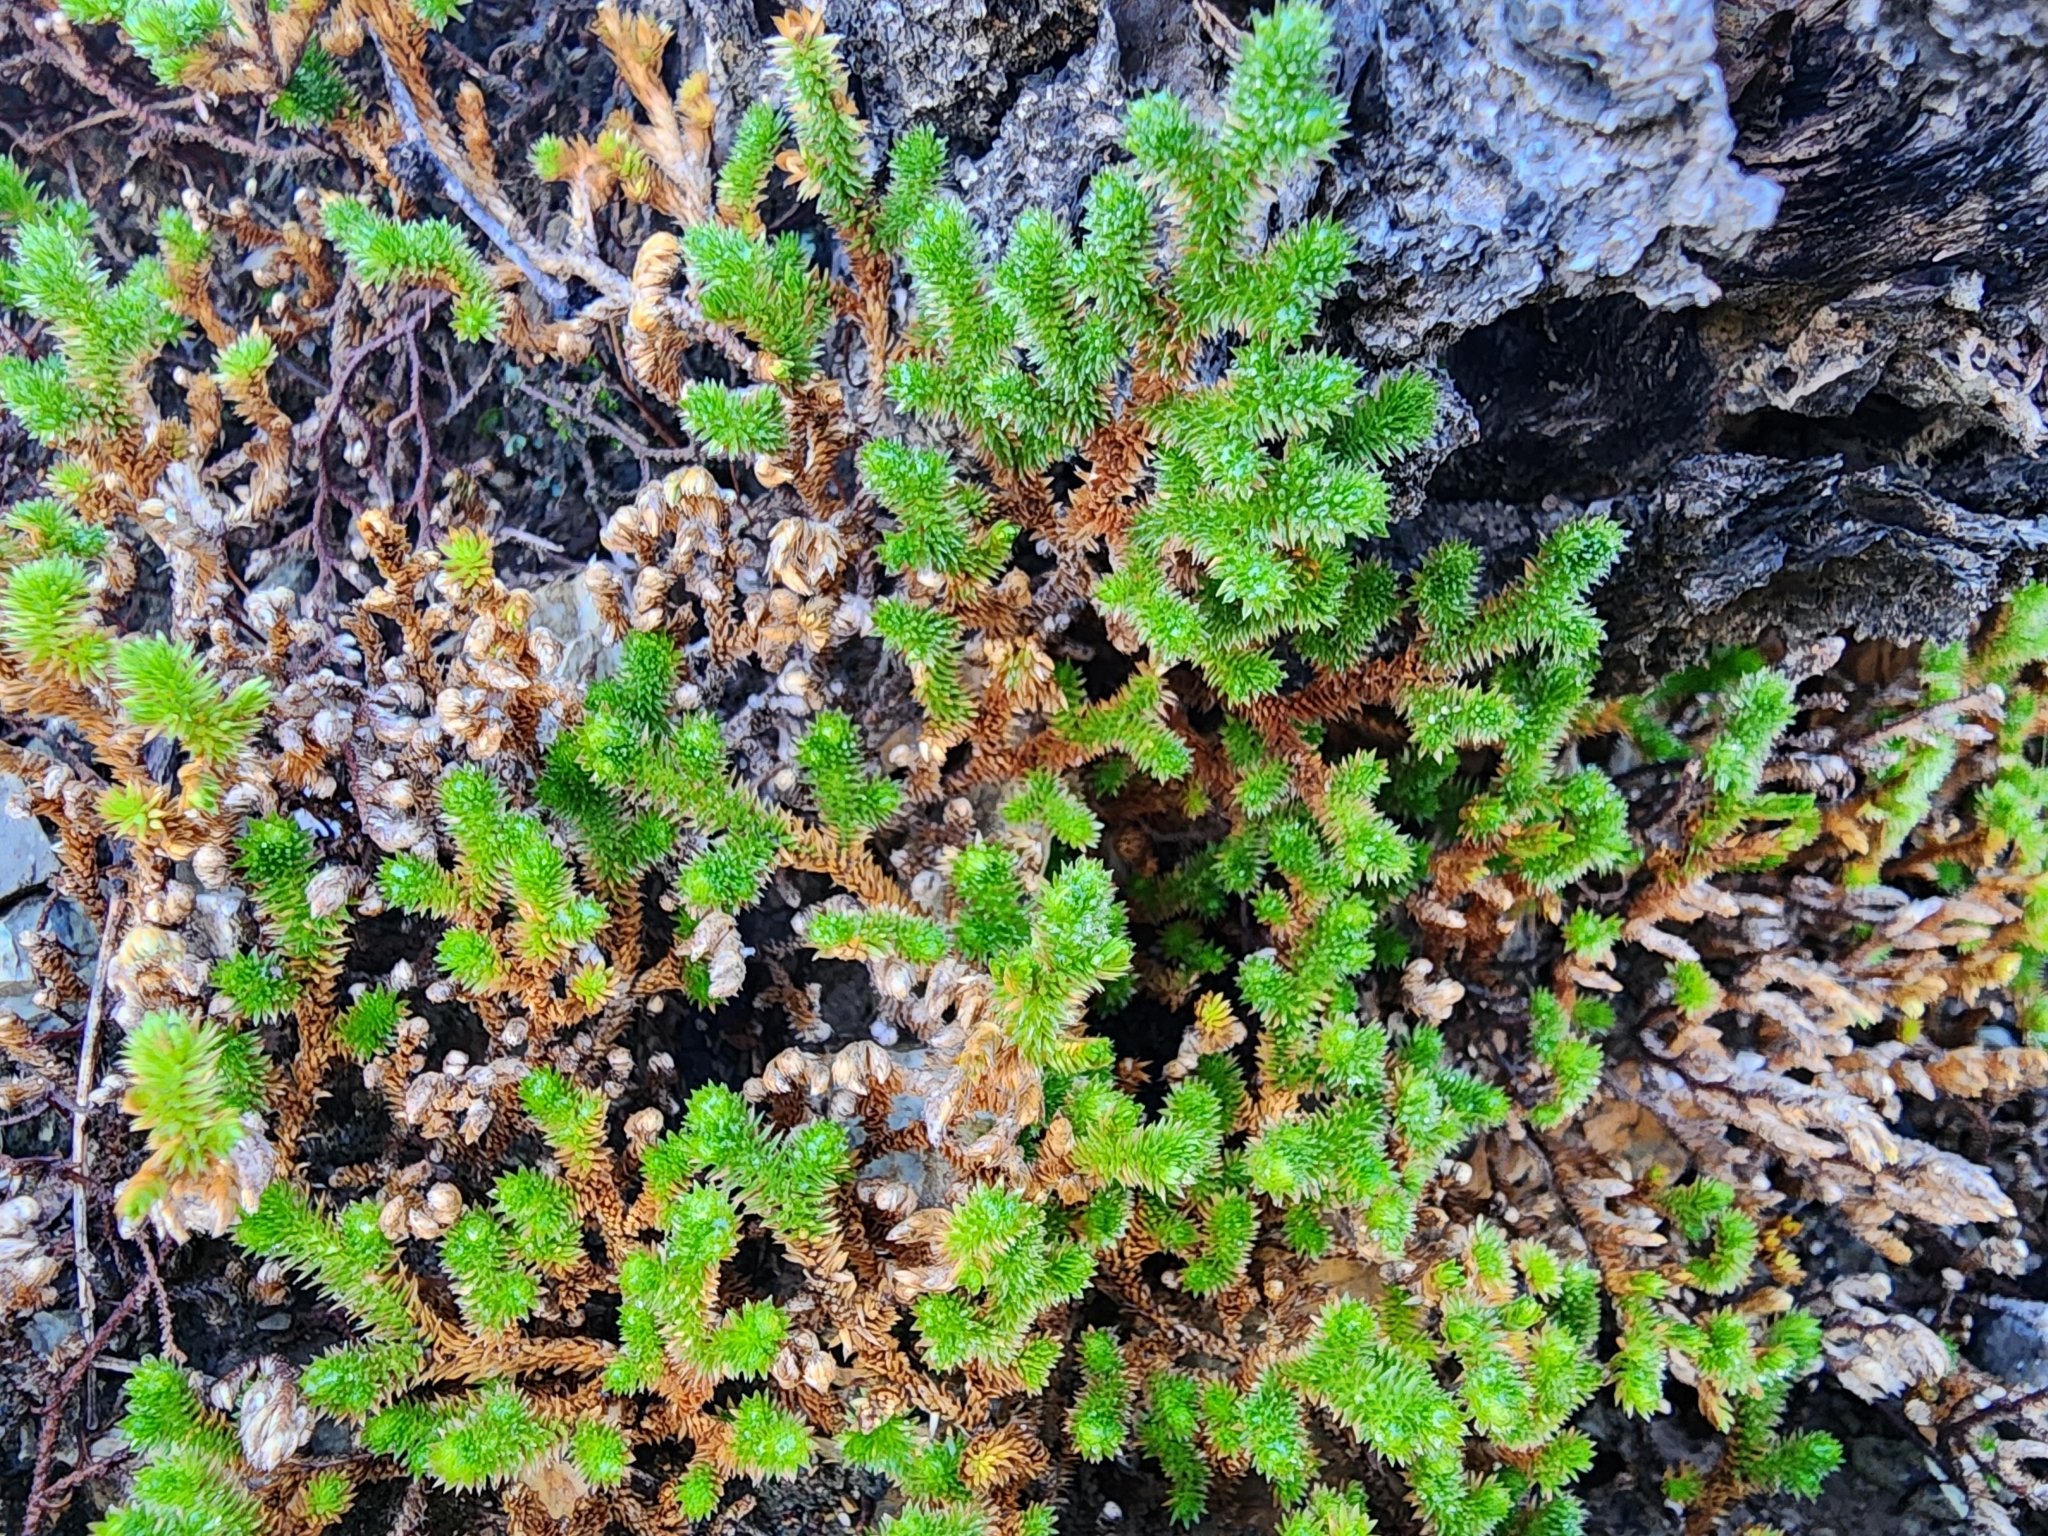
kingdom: Plantae
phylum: Tracheophyta
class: Lycopodiopsida
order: Selaginellales
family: Selaginellaceae
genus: Selaginella
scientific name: Selaginella arizonica
